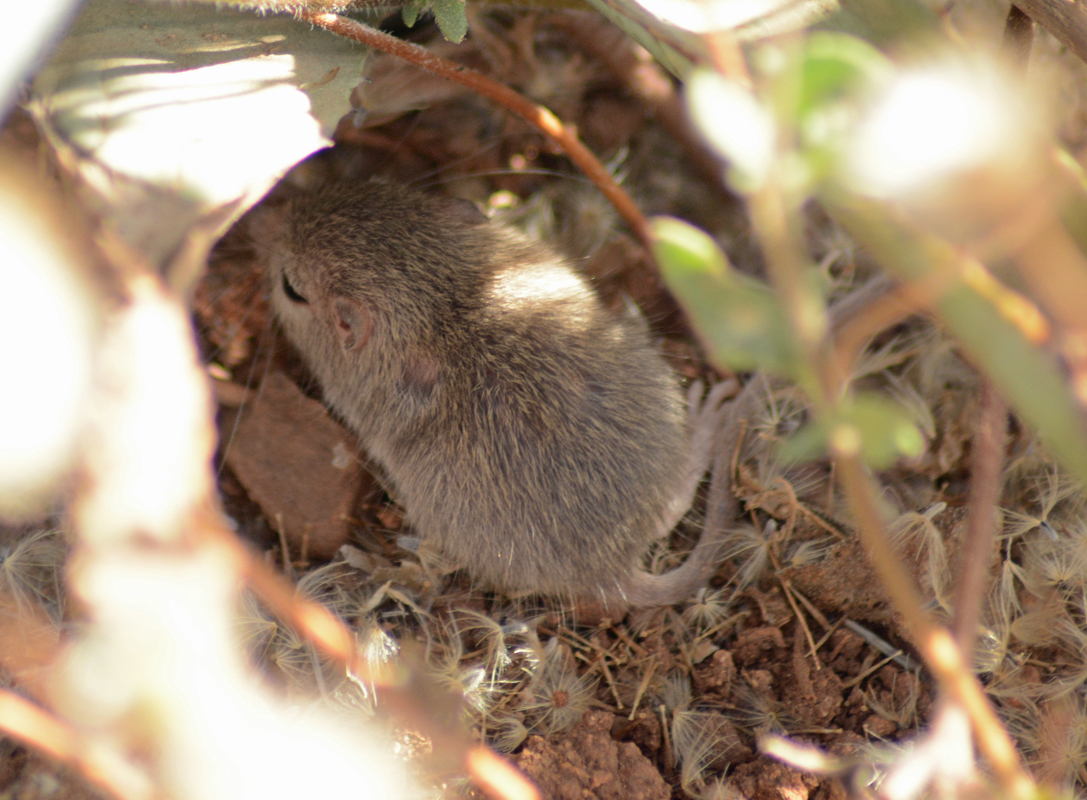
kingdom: Animalia
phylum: Chordata
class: Mammalia
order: Rodentia
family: Heteromyidae
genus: Chaetodipus
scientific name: Chaetodipus pernix
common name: Sinaloan pocket mouse
